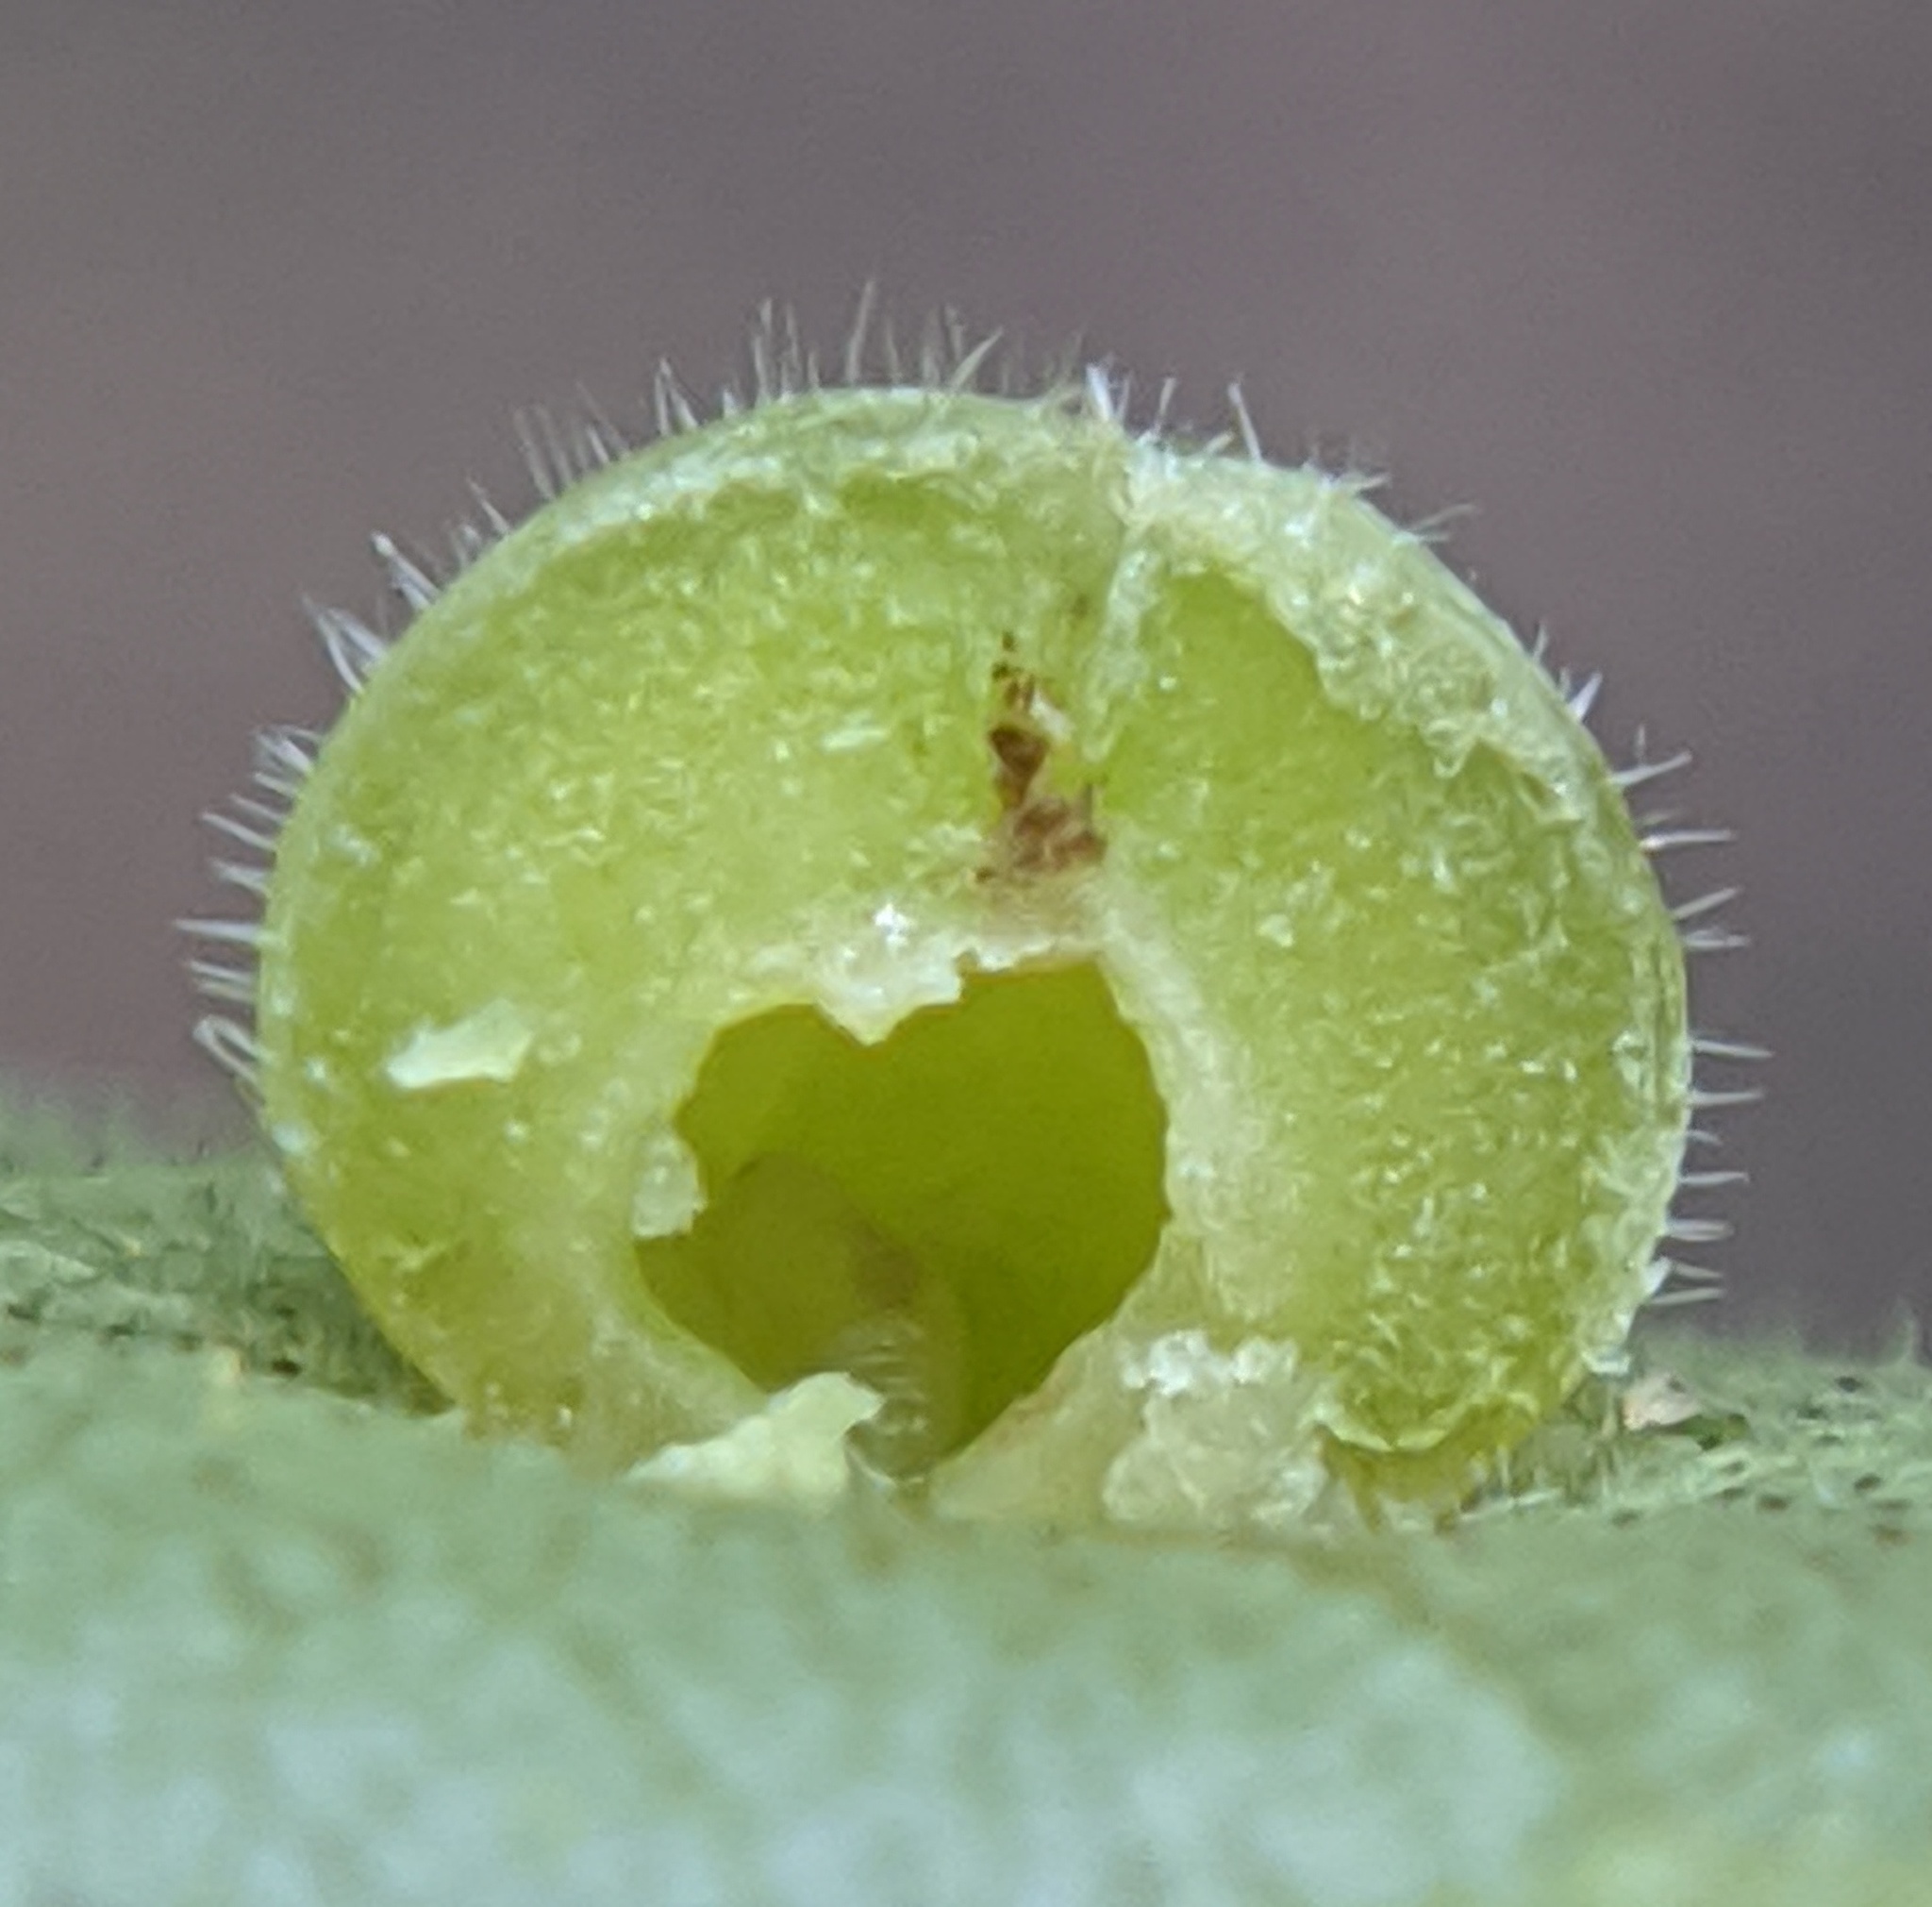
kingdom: Animalia
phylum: Arthropoda
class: Insecta
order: Diptera
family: Cecidomyiidae
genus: Caryomyia
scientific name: Caryomyia conoidea
